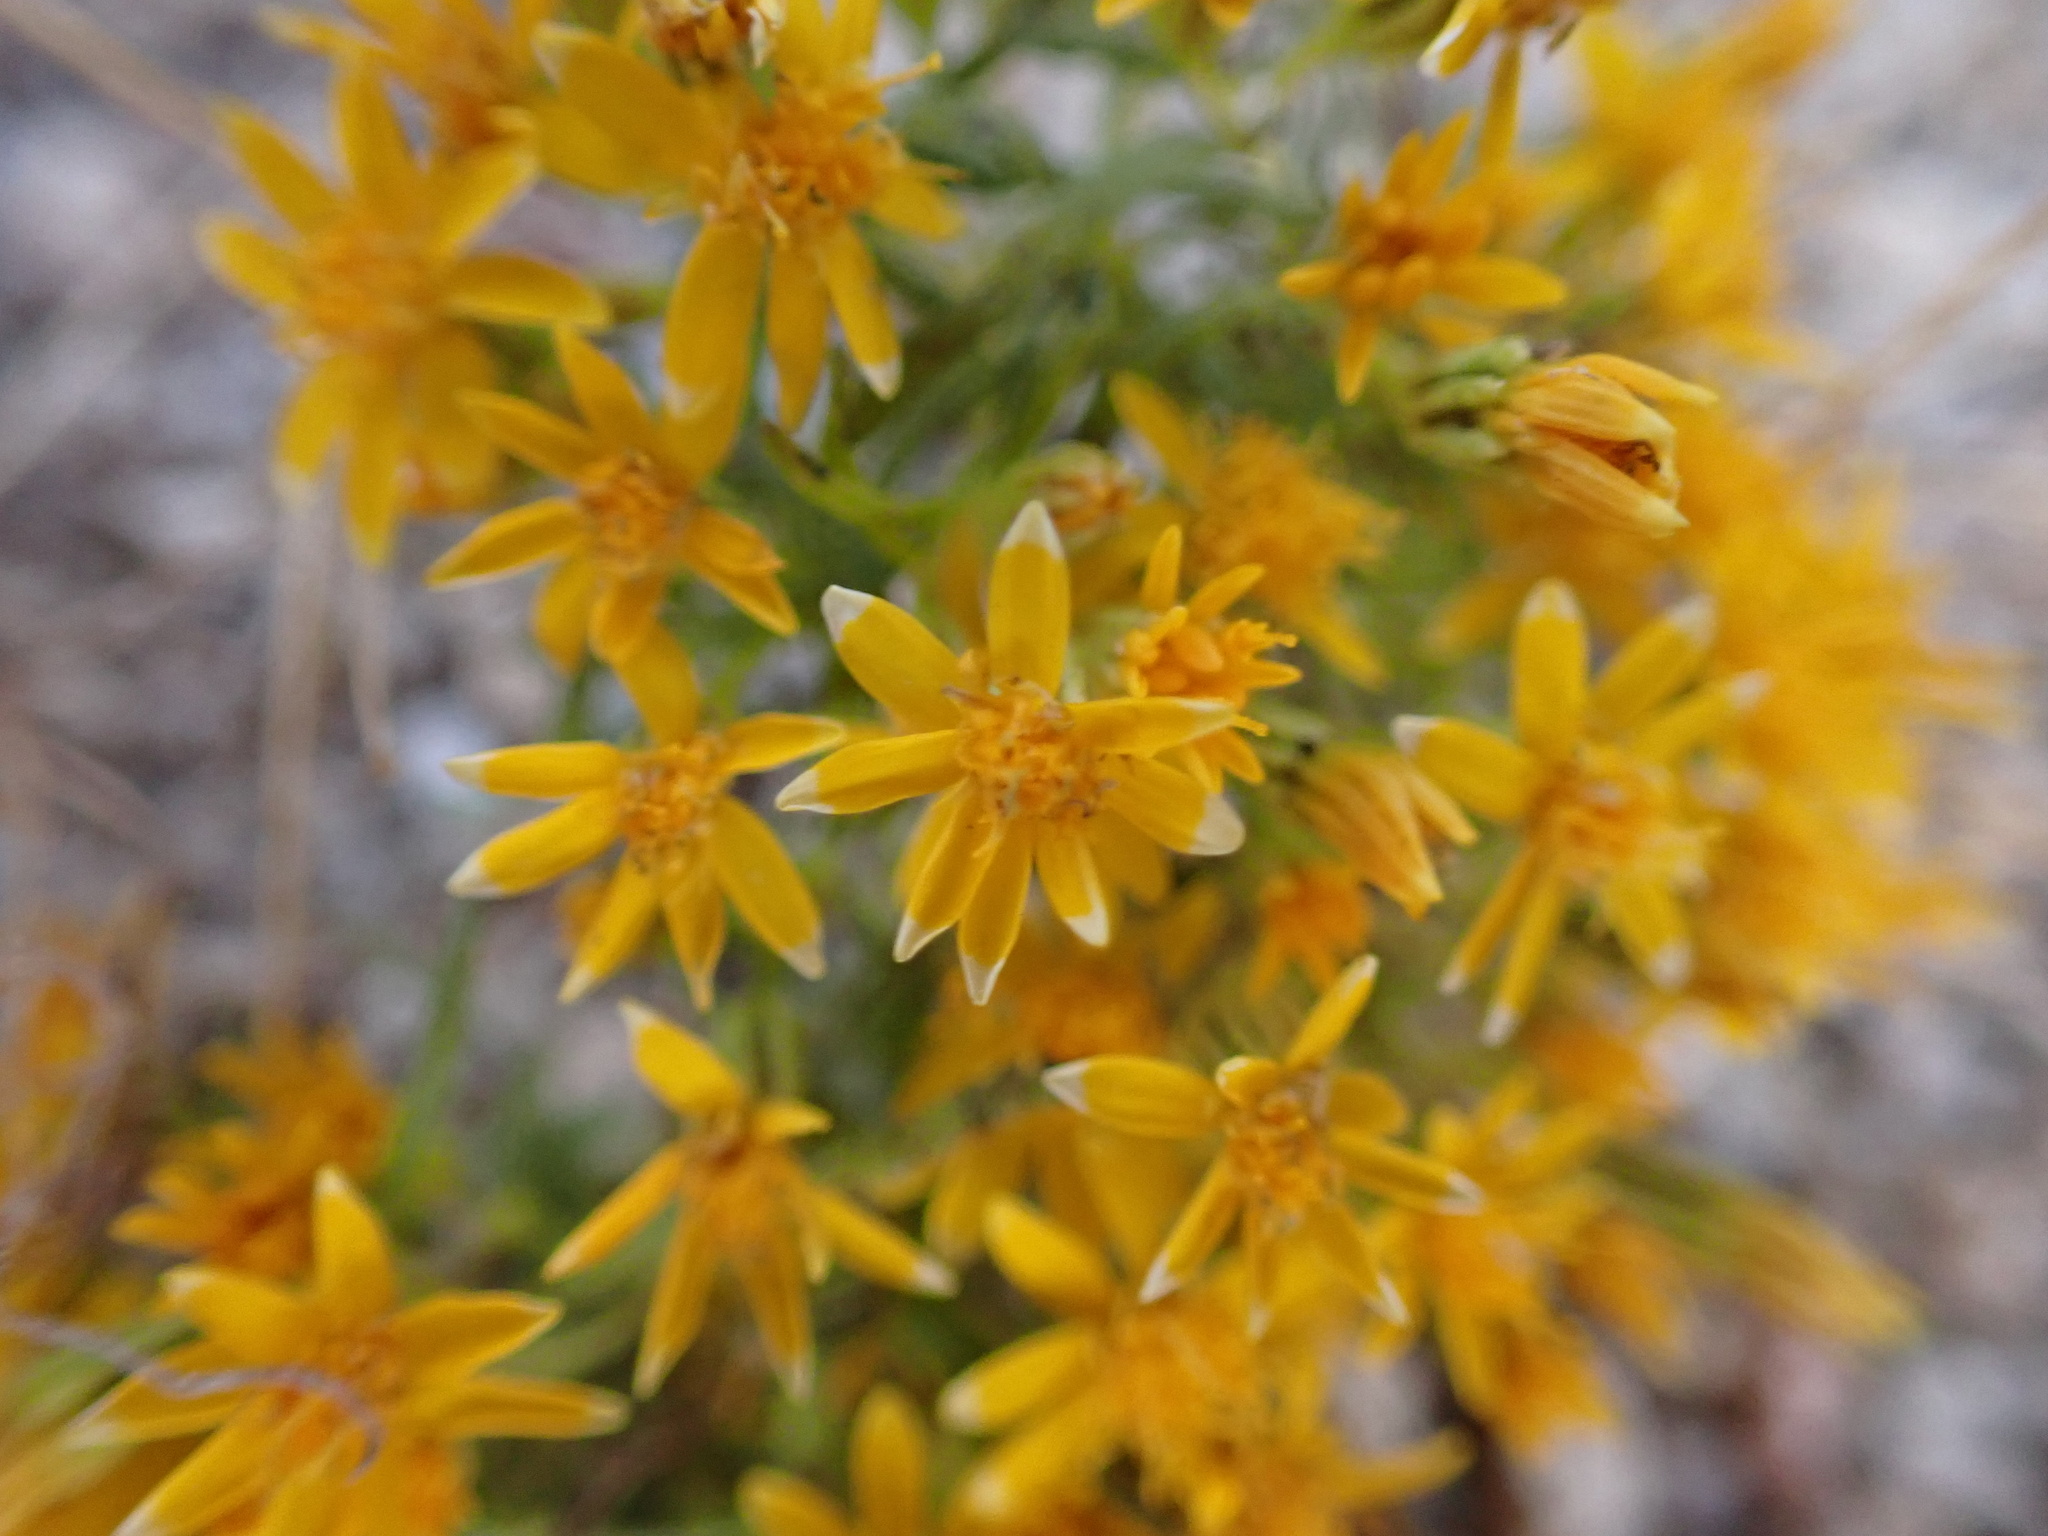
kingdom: Plantae
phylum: Tracheophyta
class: Magnoliopsida
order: Asterales
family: Asteraceae
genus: Pectis
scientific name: Pectis papposa
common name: Many-bristle chinchweed
